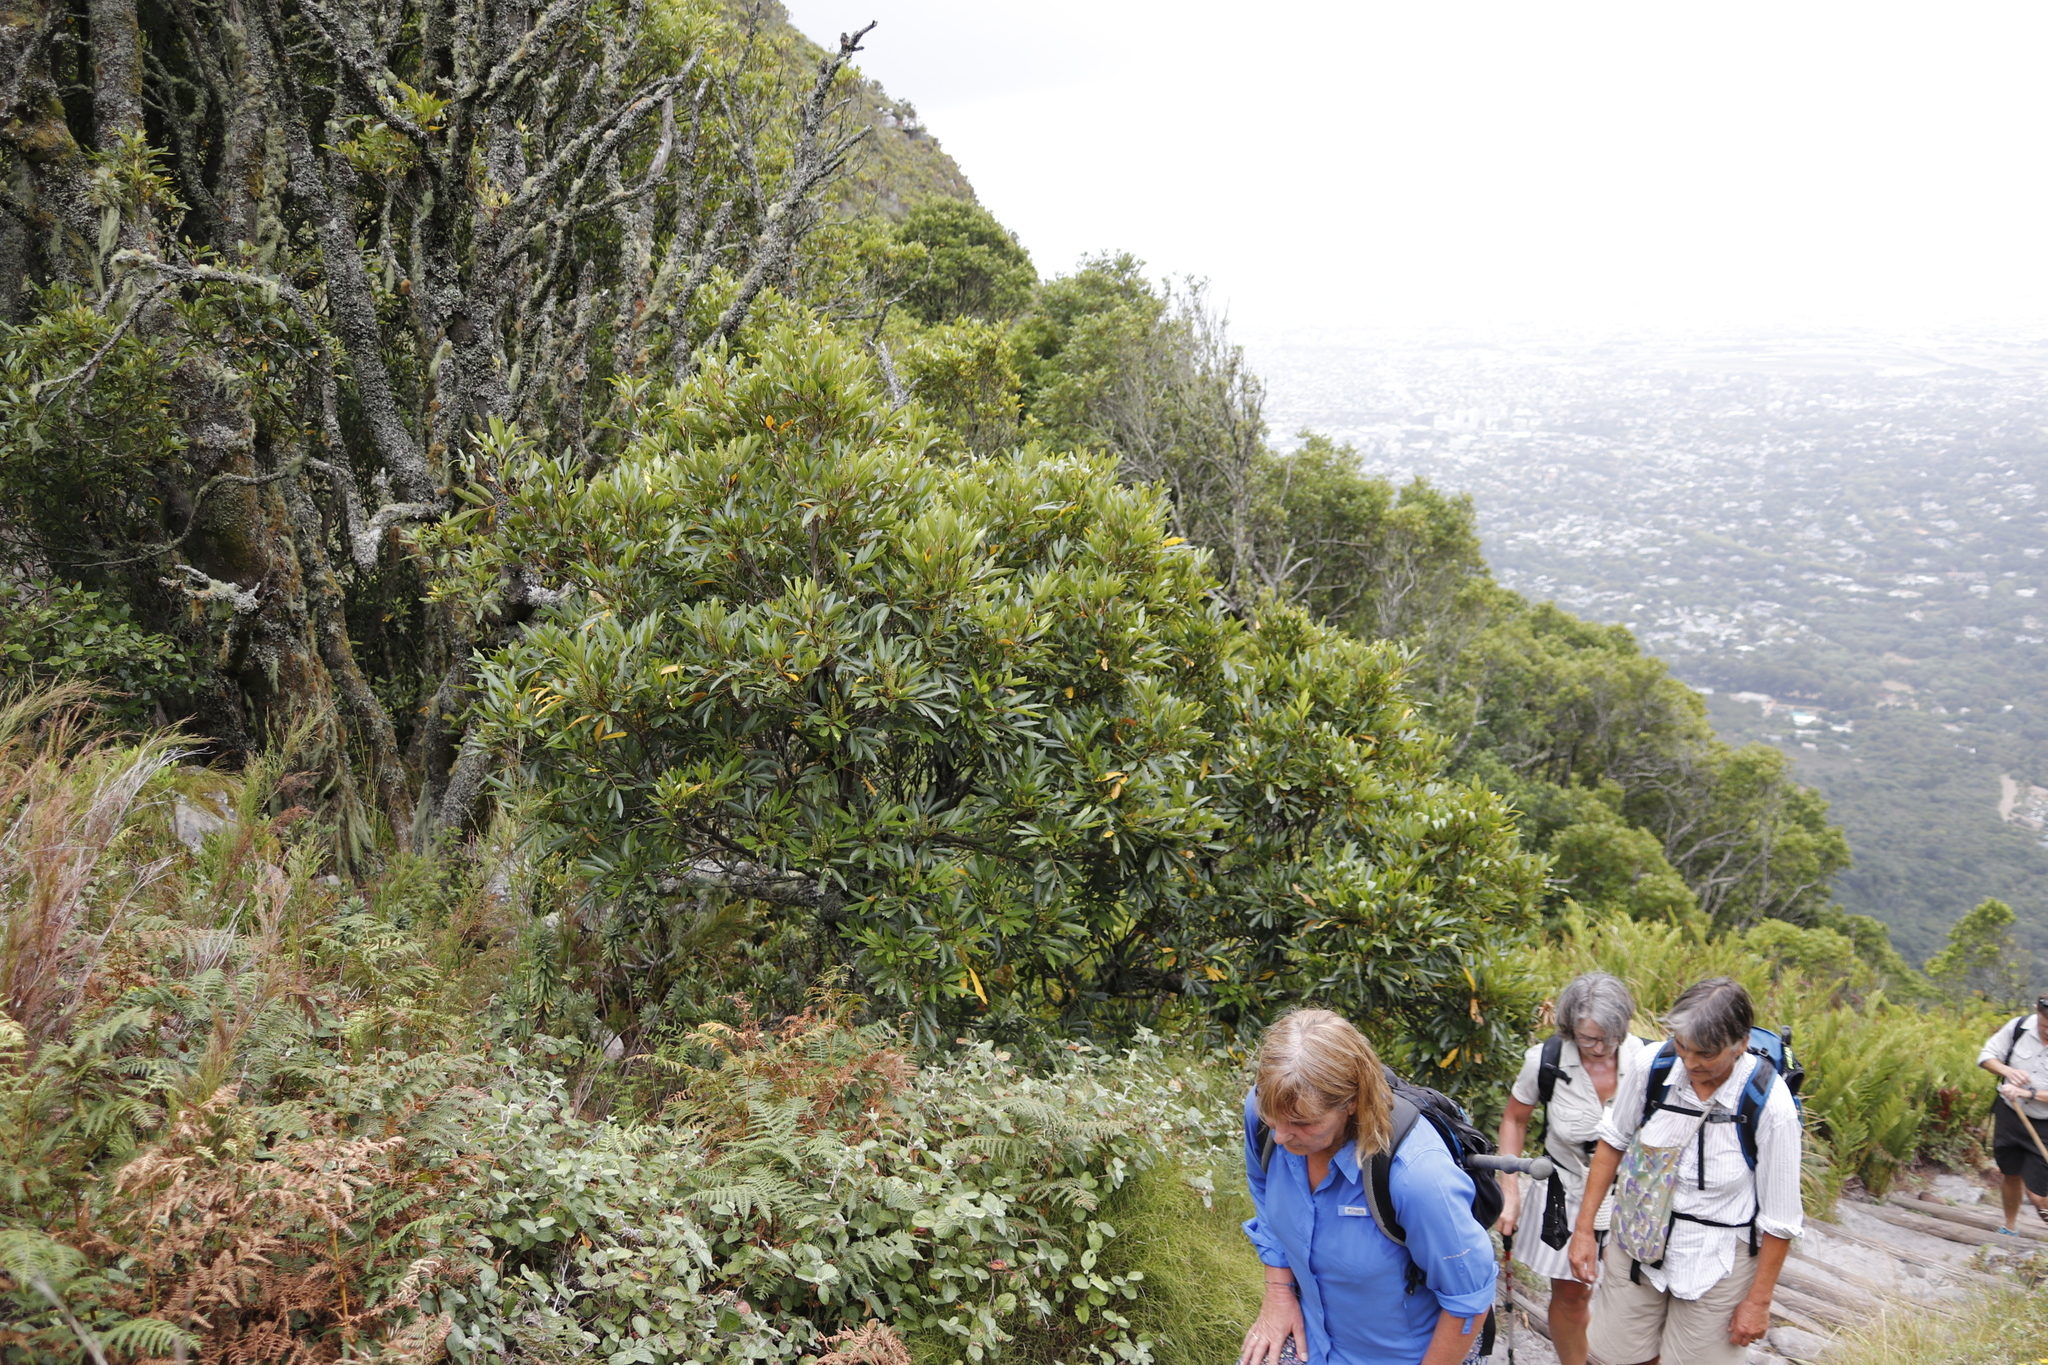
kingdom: Plantae
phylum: Tracheophyta
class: Magnoliopsida
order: Oxalidales
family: Cunoniaceae
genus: Cunonia
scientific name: Cunonia capensis
